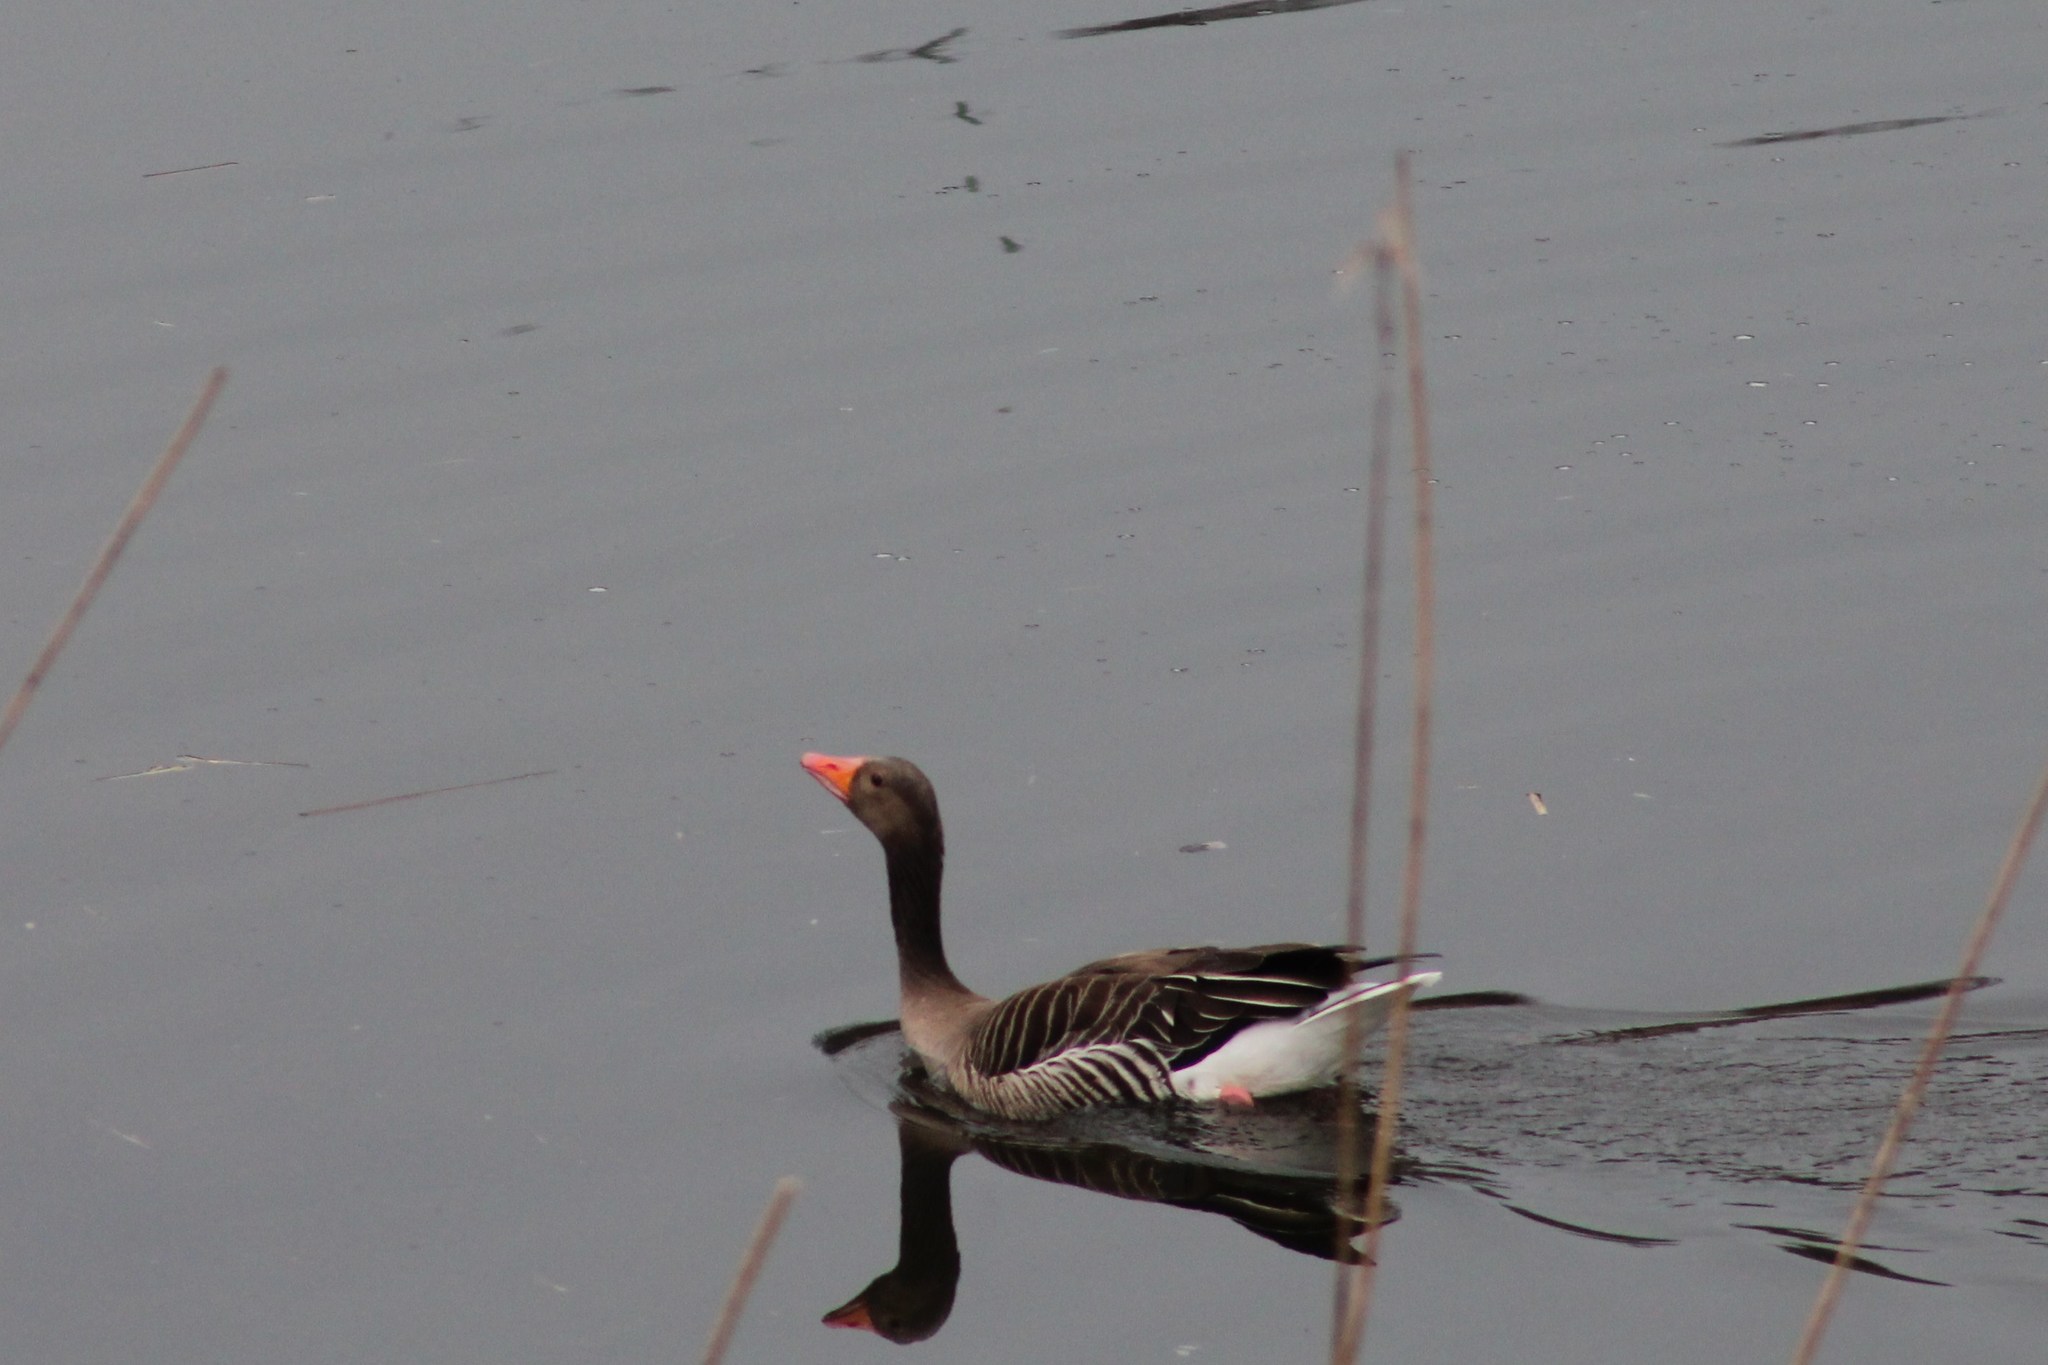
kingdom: Animalia
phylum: Chordata
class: Aves
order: Anseriformes
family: Anatidae
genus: Anser
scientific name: Anser anser
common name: Greylag goose
